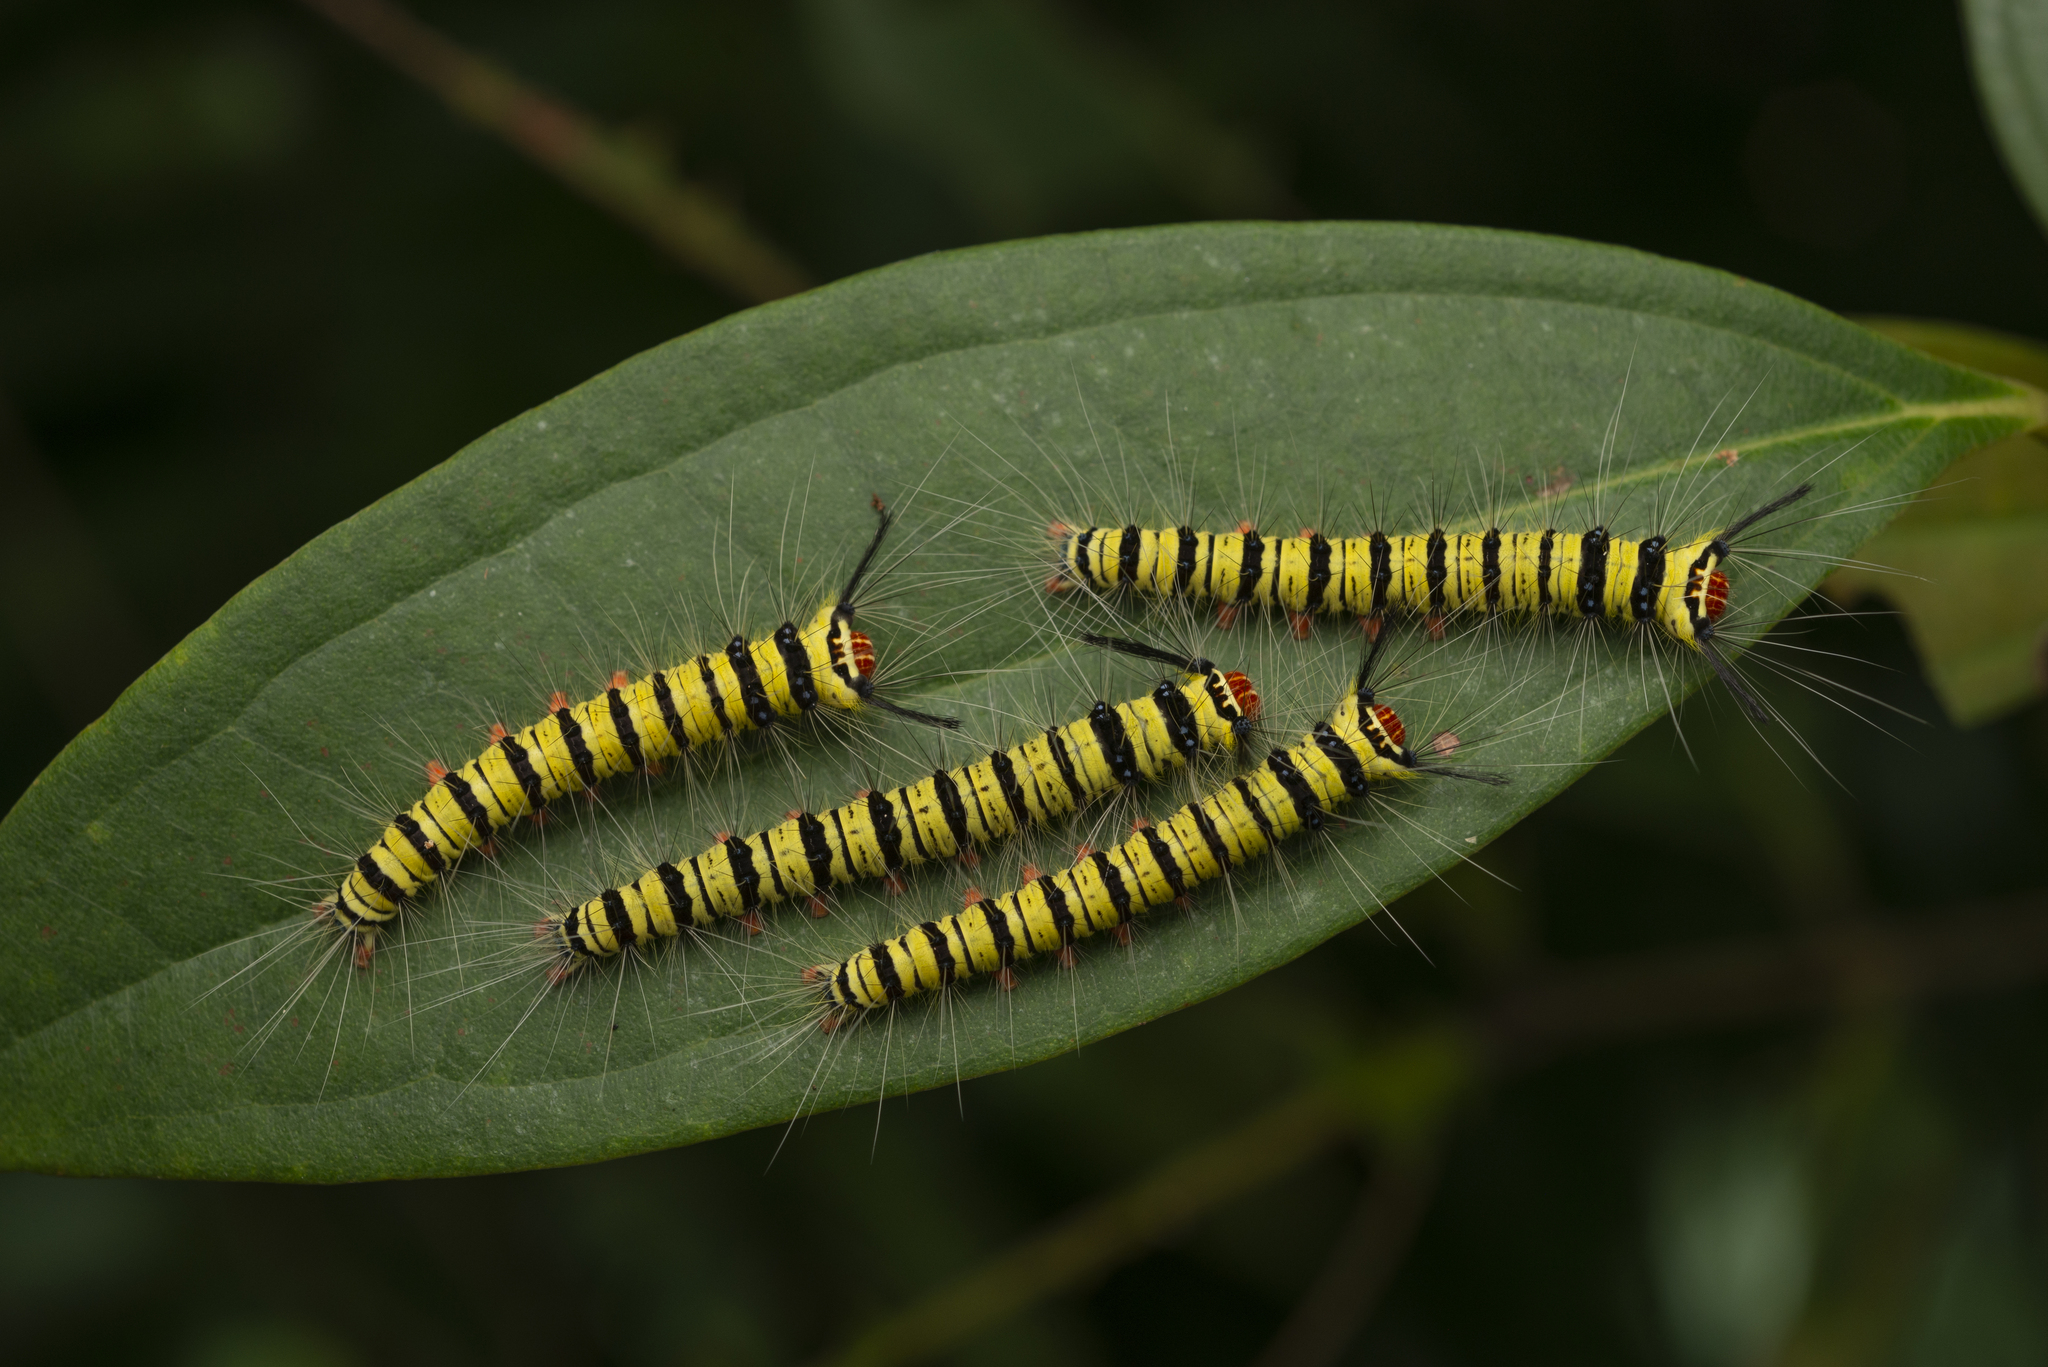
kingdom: Animalia
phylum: Arthropoda
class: Insecta
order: Lepidoptera
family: Lasiocampidae
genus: Trabala
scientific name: Trabala pallida
